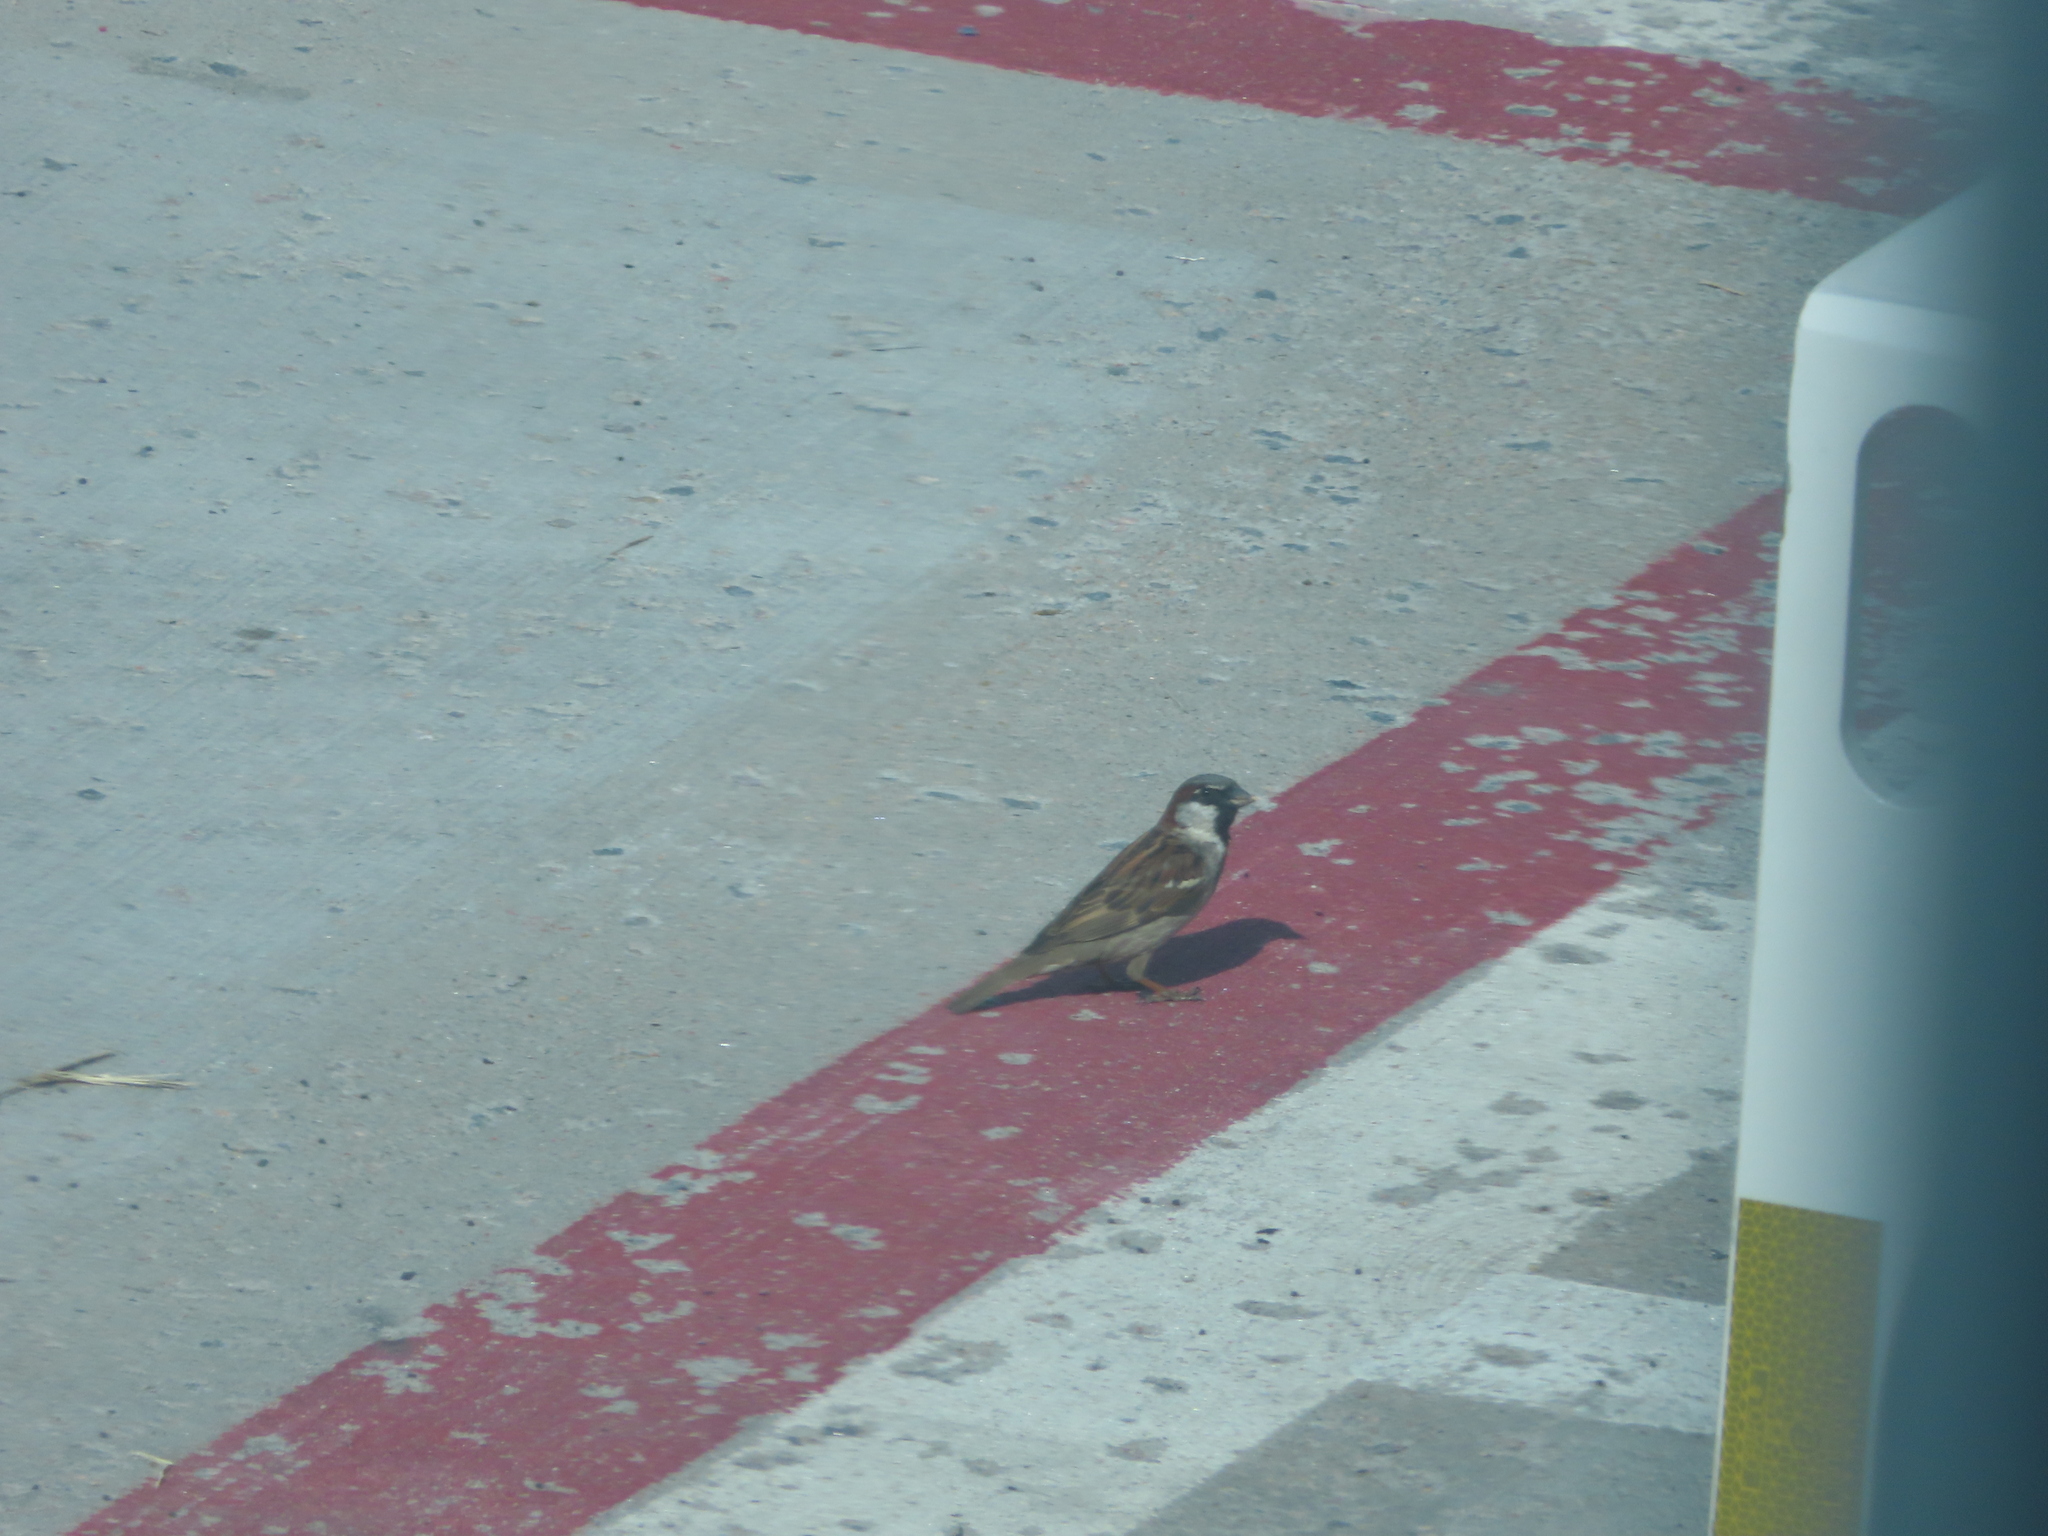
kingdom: Animalia
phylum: Chordata
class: Aves
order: Passeriformes
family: Passeridae
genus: Passer
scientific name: Passer domesticus
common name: House sparrow
